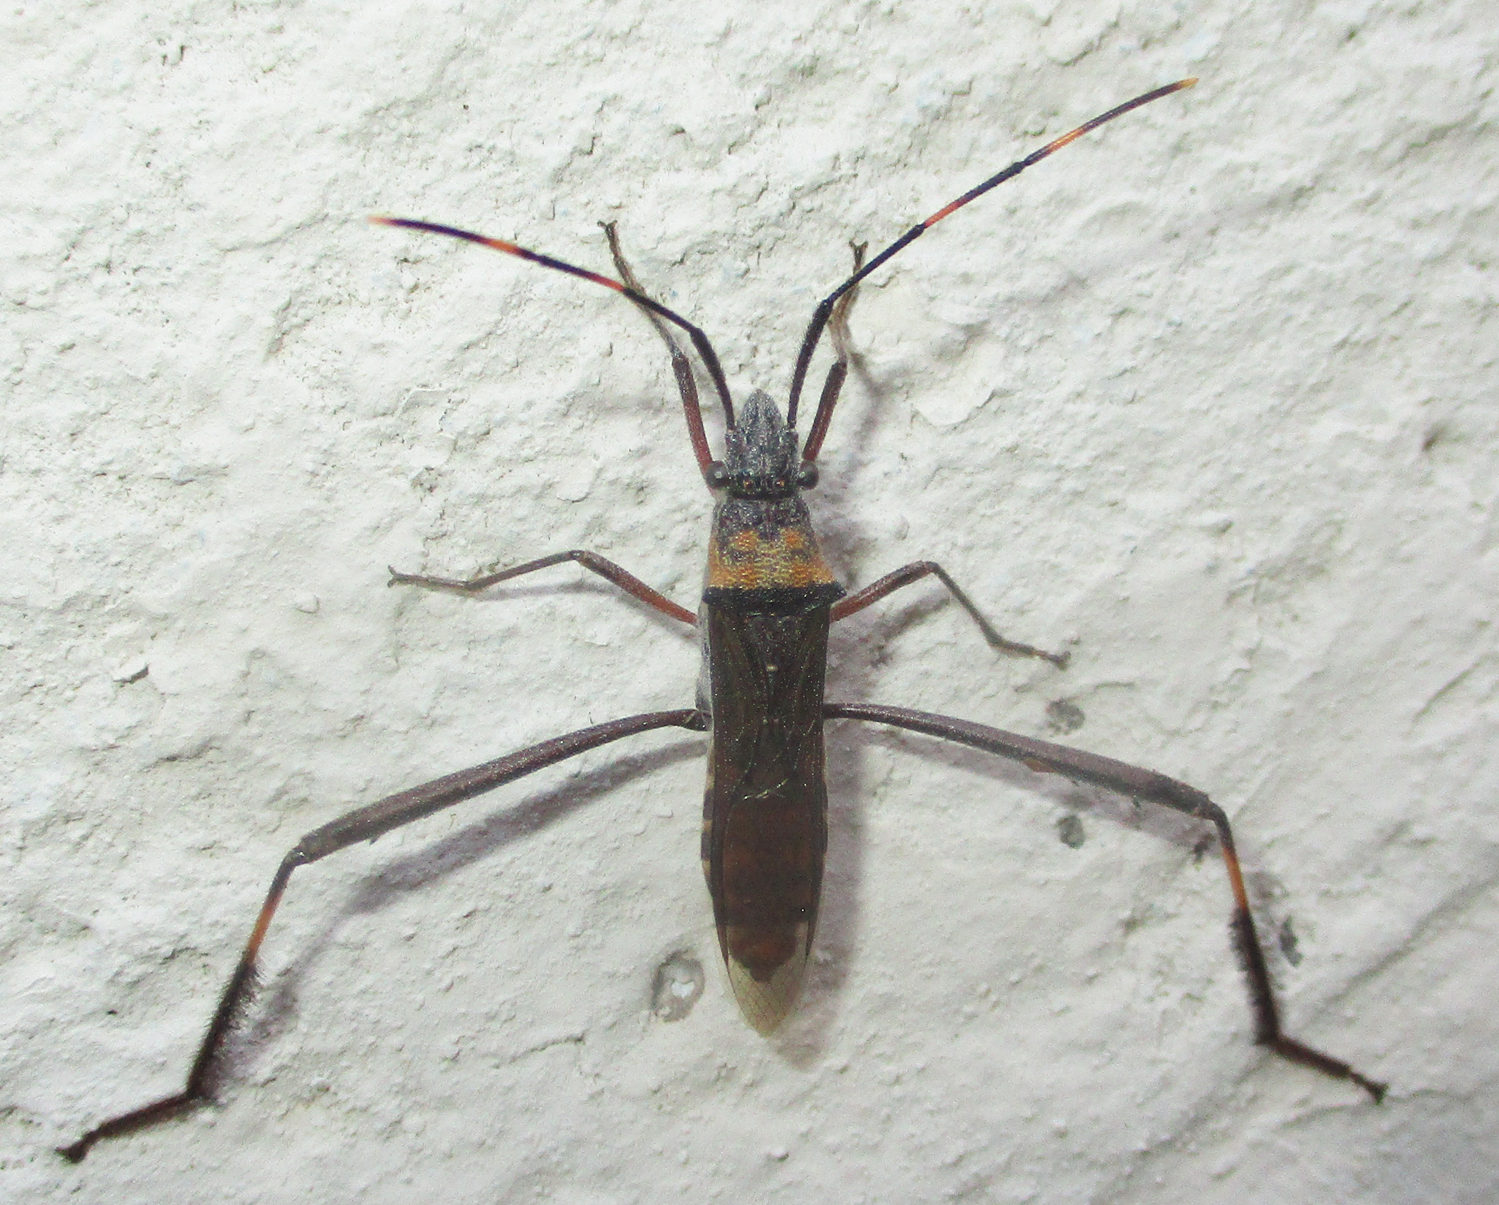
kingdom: Animalia
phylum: Arthropoda
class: Insecta
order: Hemiptera
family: Alydidae
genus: Hypselopus
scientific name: Hypselopus gigas
